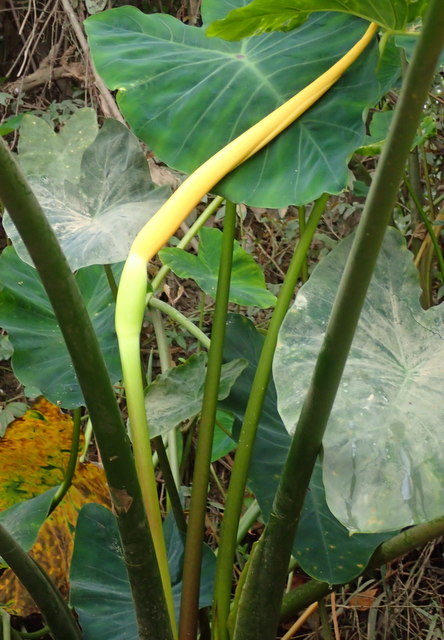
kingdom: Plantae
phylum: Tracheophyta
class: Liliopsida
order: Alismatales
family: Araceae
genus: Colocasia
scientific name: Colocasia esculenta
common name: Taro
